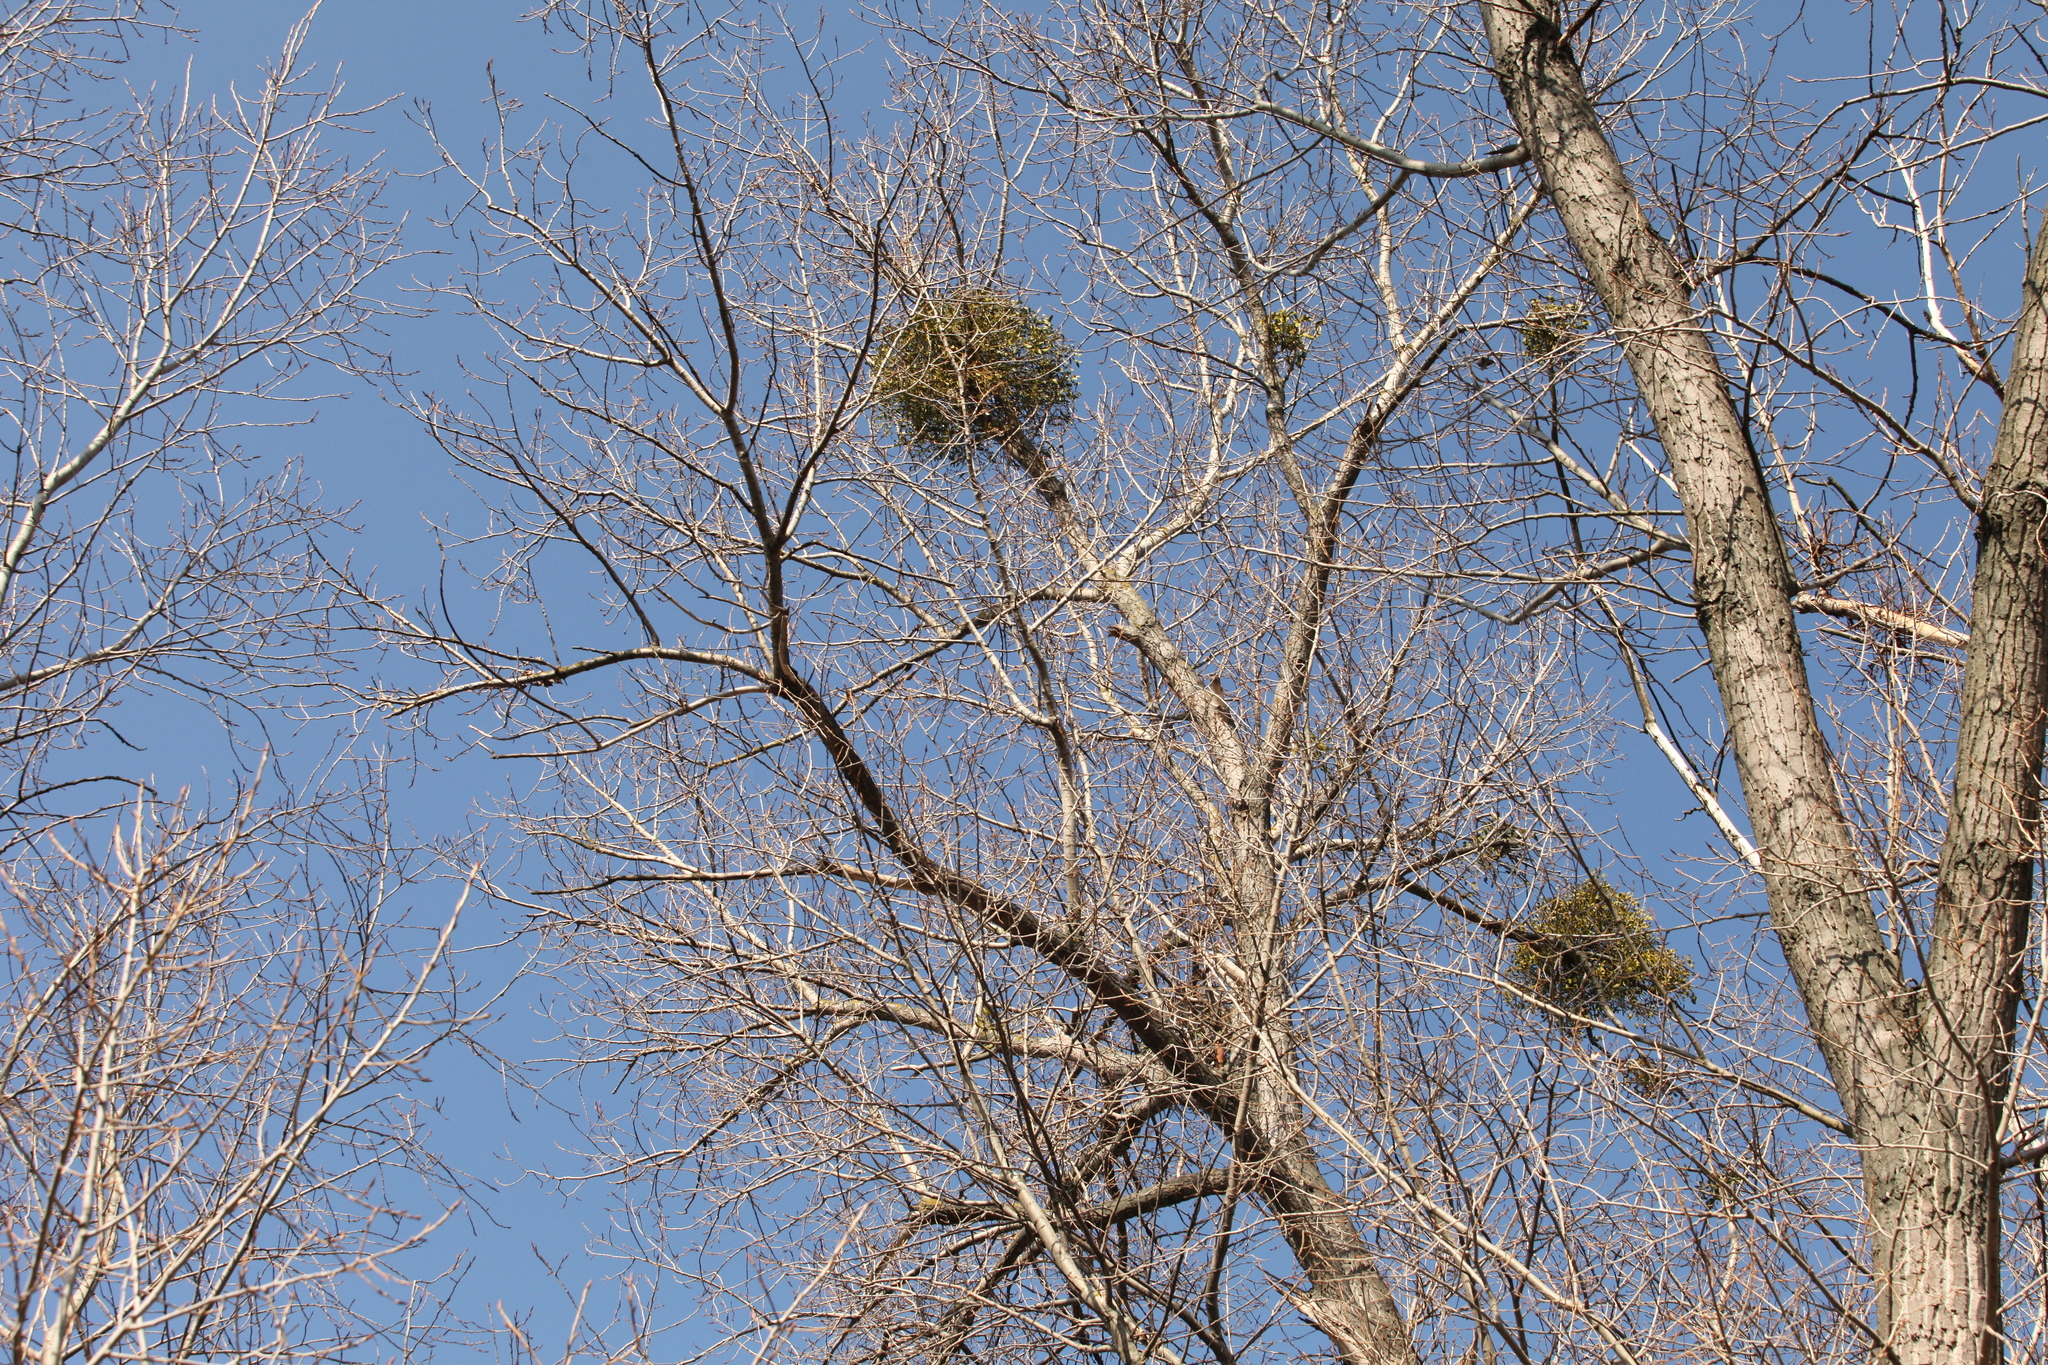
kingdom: Plantae
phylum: Tracheophyta
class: Magnoliopsida
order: Santalales
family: Viscaceae
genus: Viscum
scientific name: Viscum album
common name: Mistletoe
